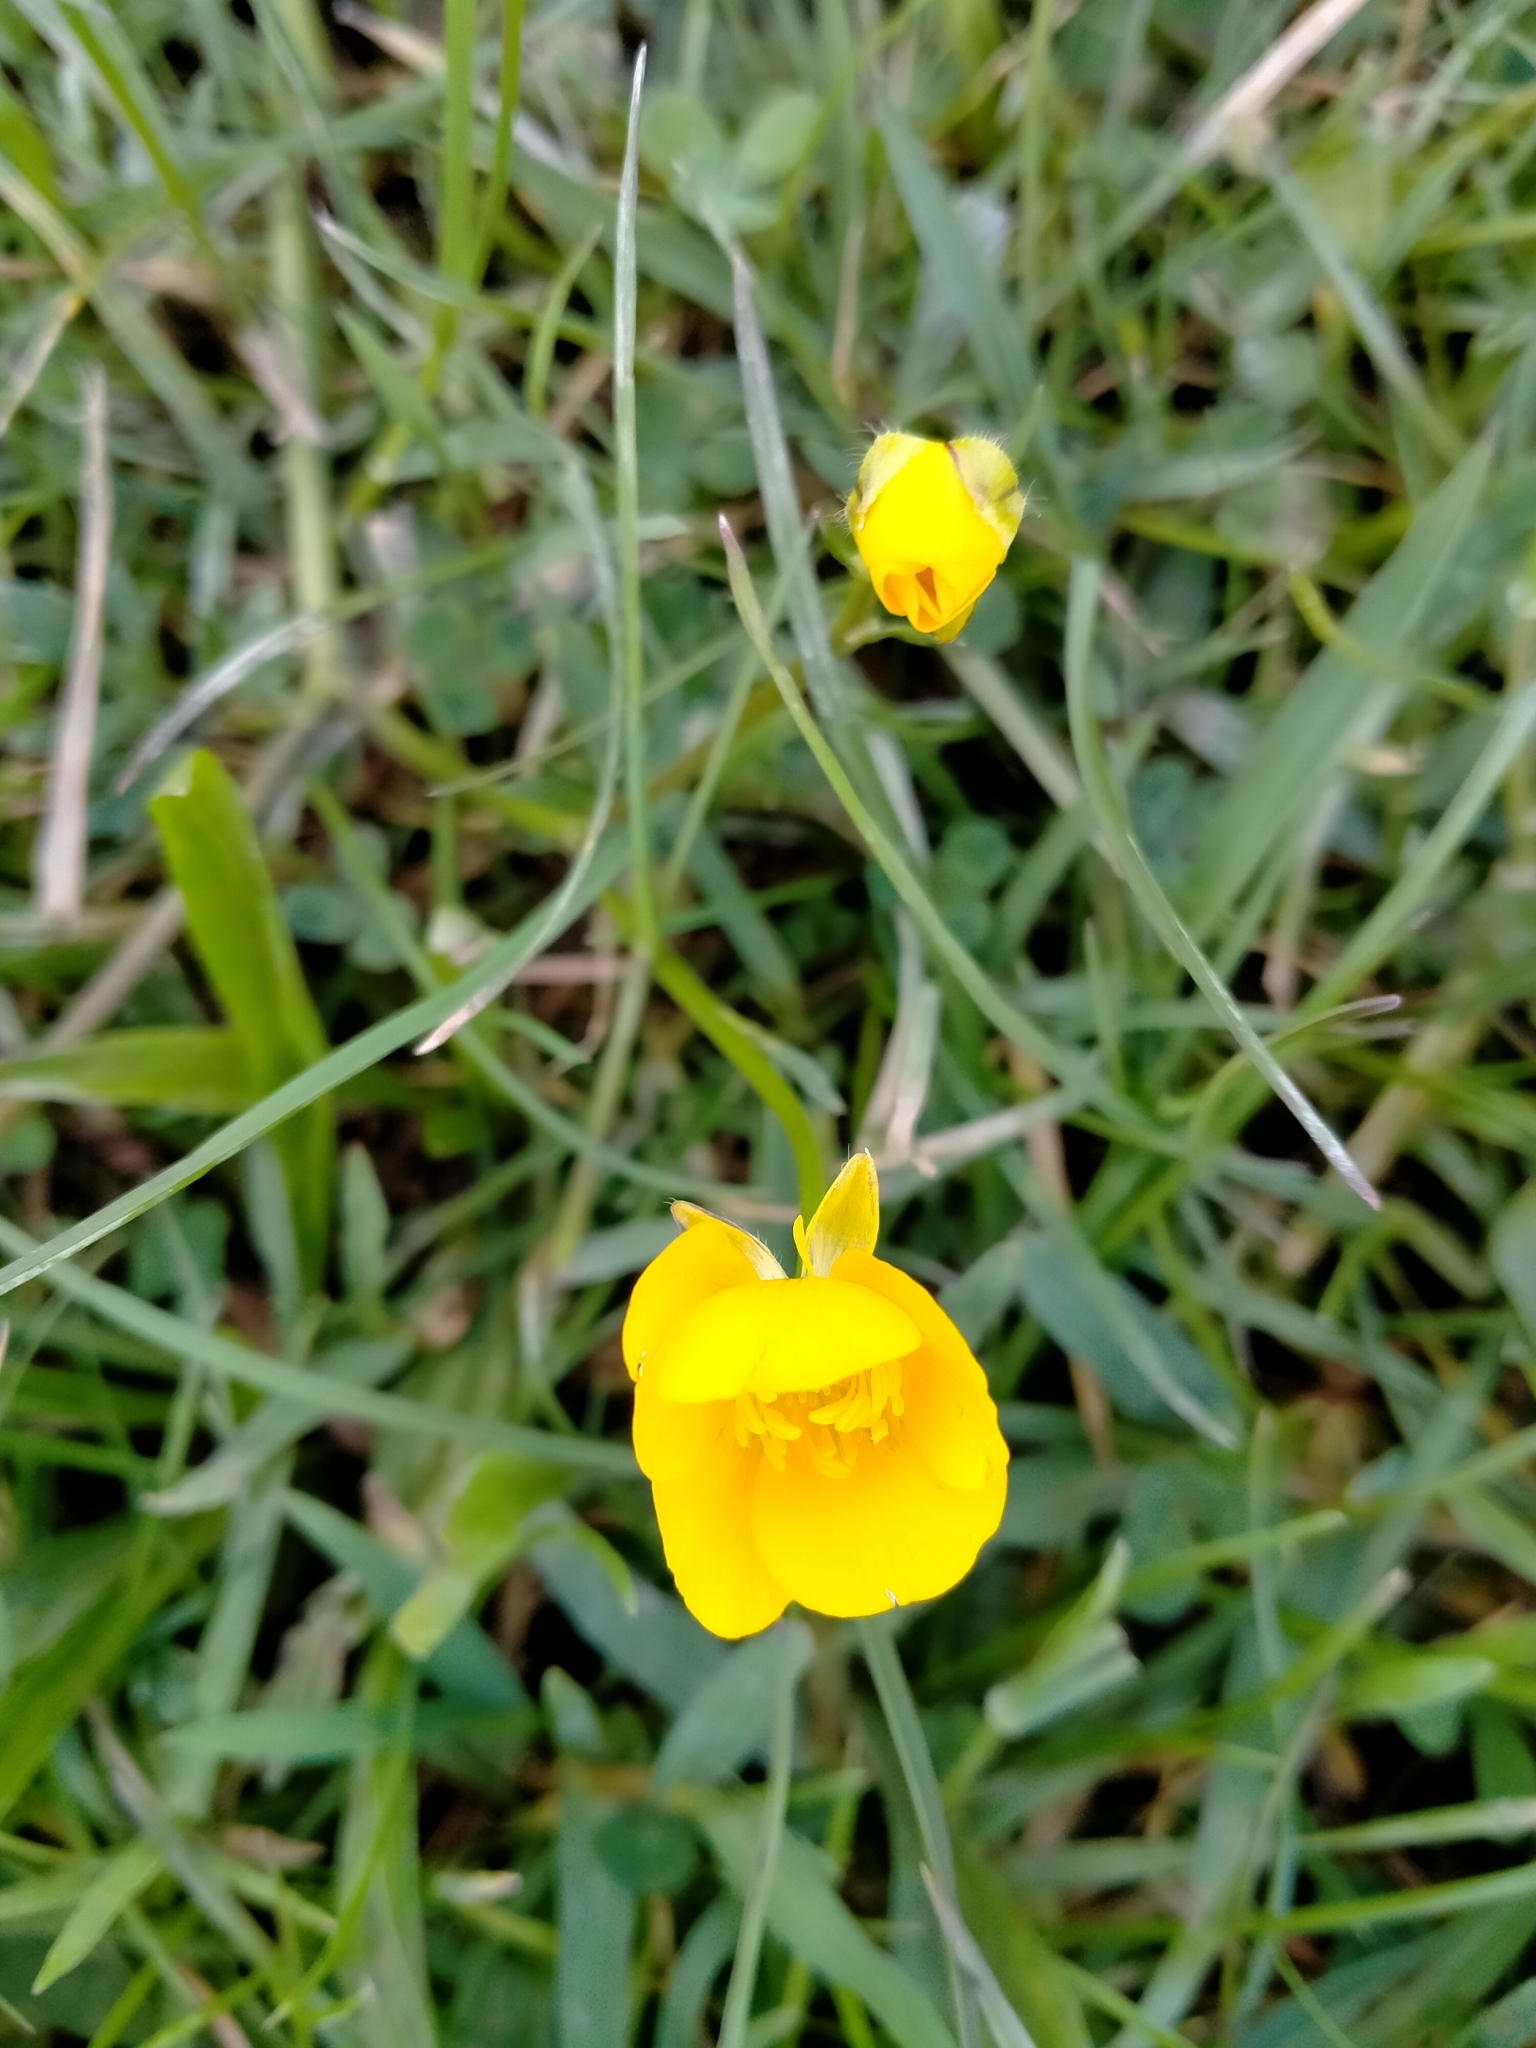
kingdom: Plantae
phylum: Tracheophyta
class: Magnoliopsida
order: Ranunculales
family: Ranunculaceae
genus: Ranunculus
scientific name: Ranunculus repens
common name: Creeping buttercup
